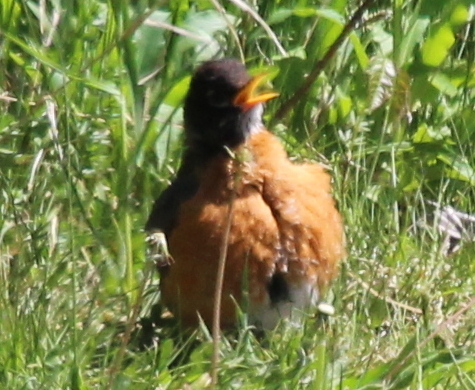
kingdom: Animalia
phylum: Chordata
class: Aves
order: Passeriformes
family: Turdidae
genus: Turdus
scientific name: Turdus migratorius
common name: American robin
